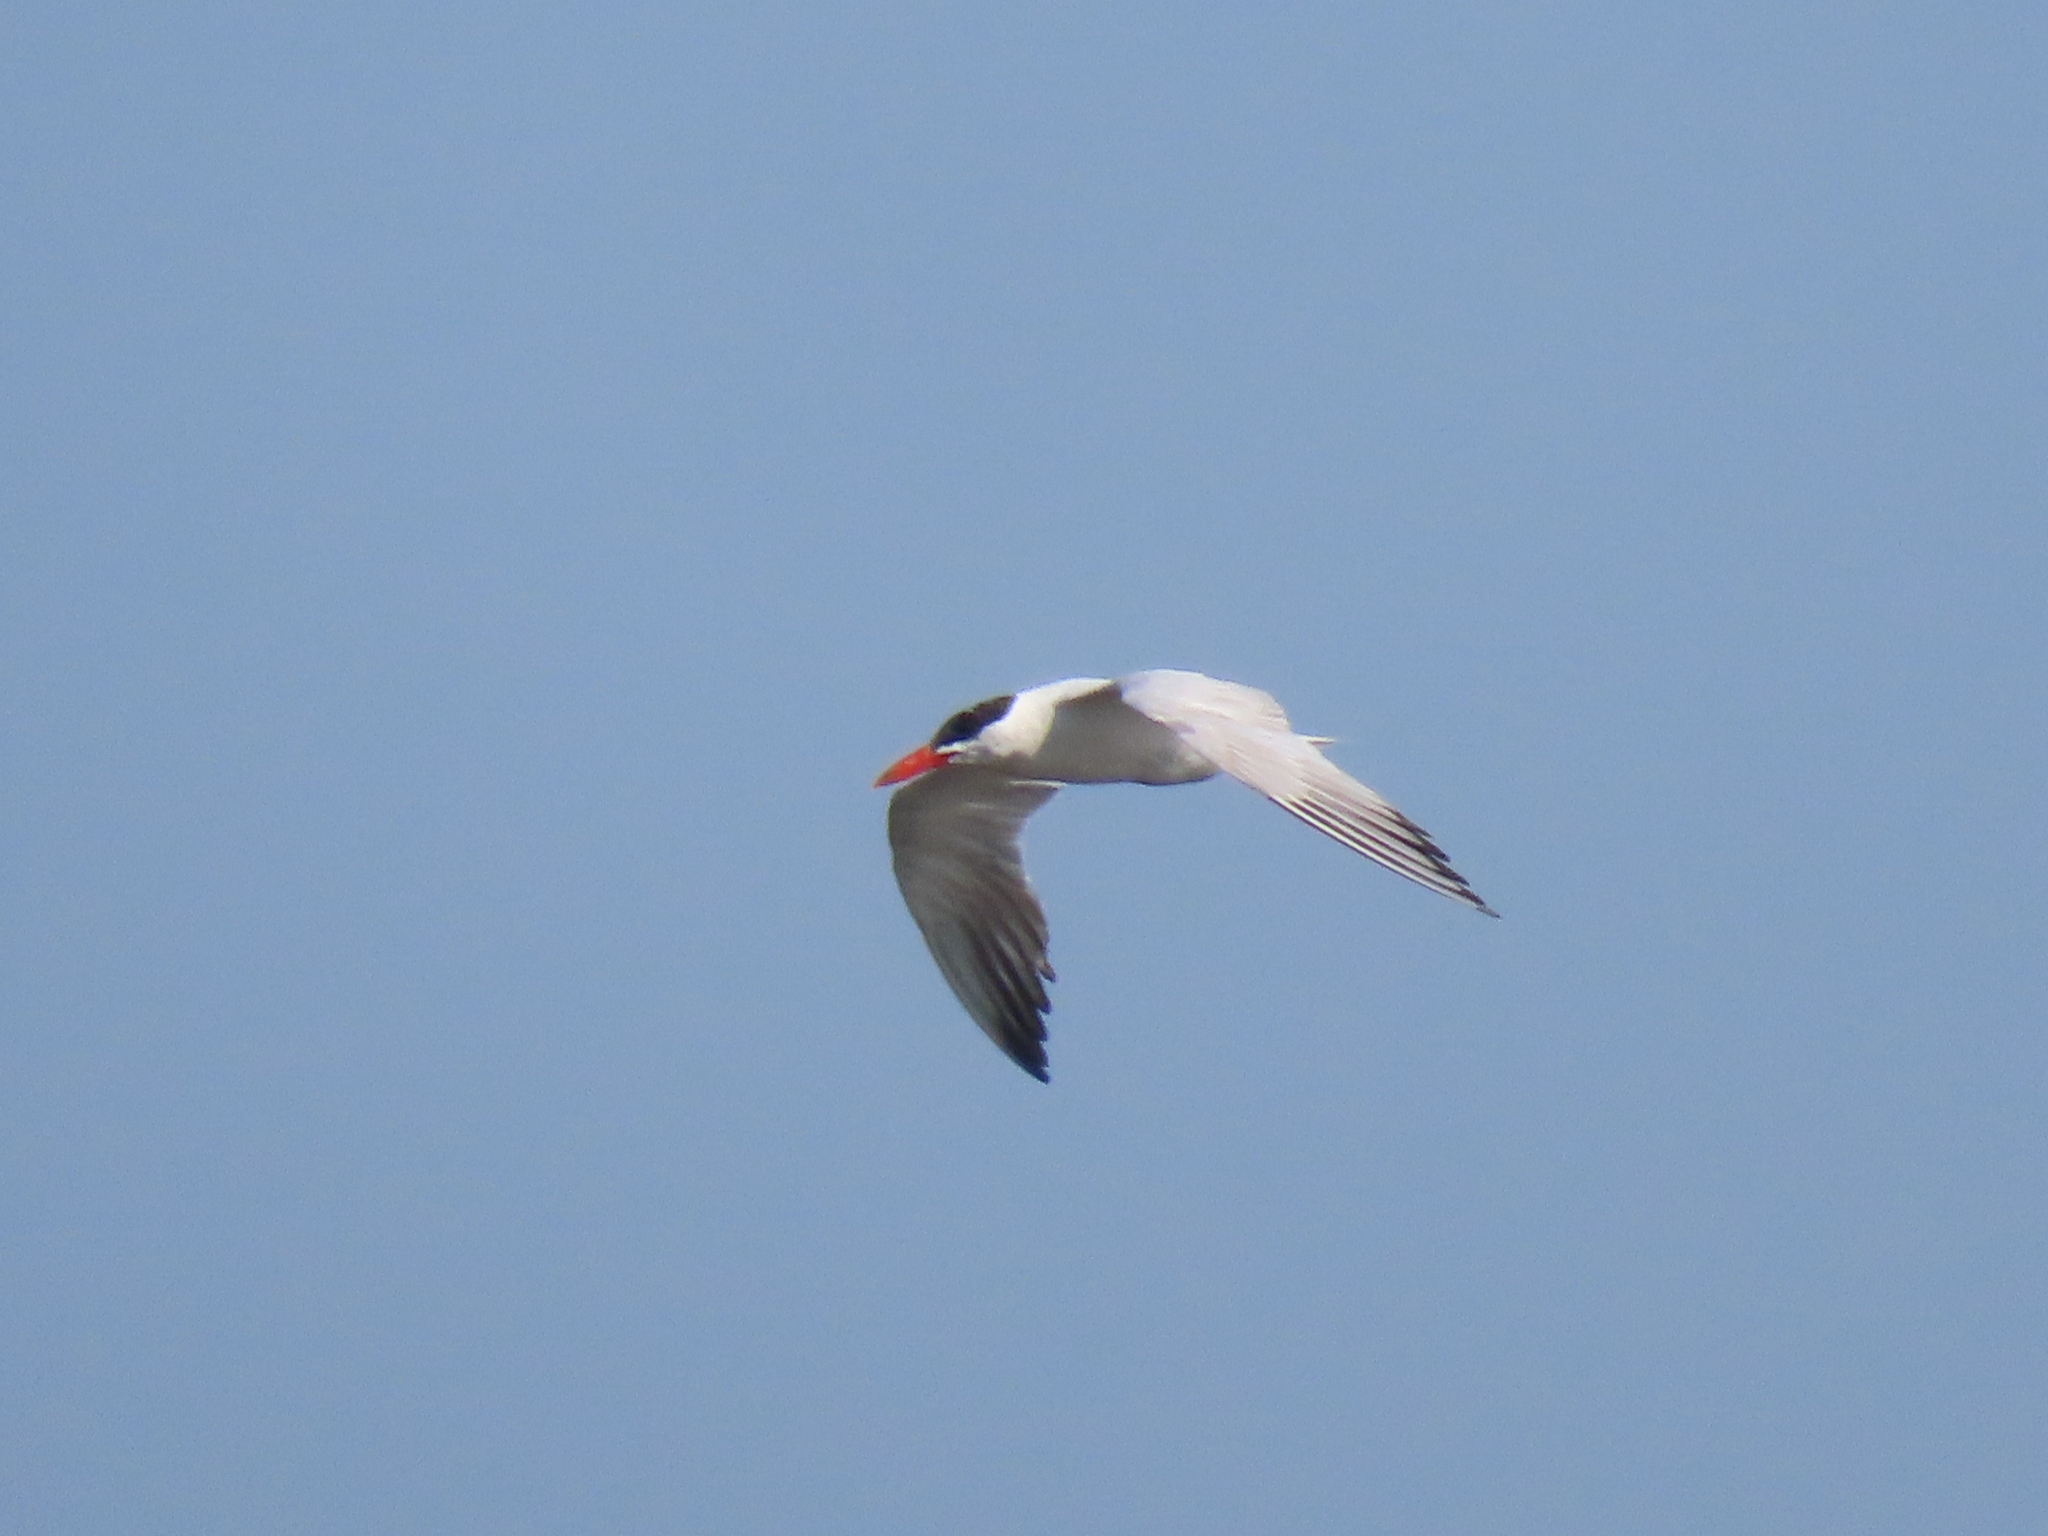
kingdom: Animalia
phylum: Chordata
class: Aves
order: Charadriiformes
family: Laridae
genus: Hydroprogne
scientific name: Hydroprogne caspia
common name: Caspian tern
